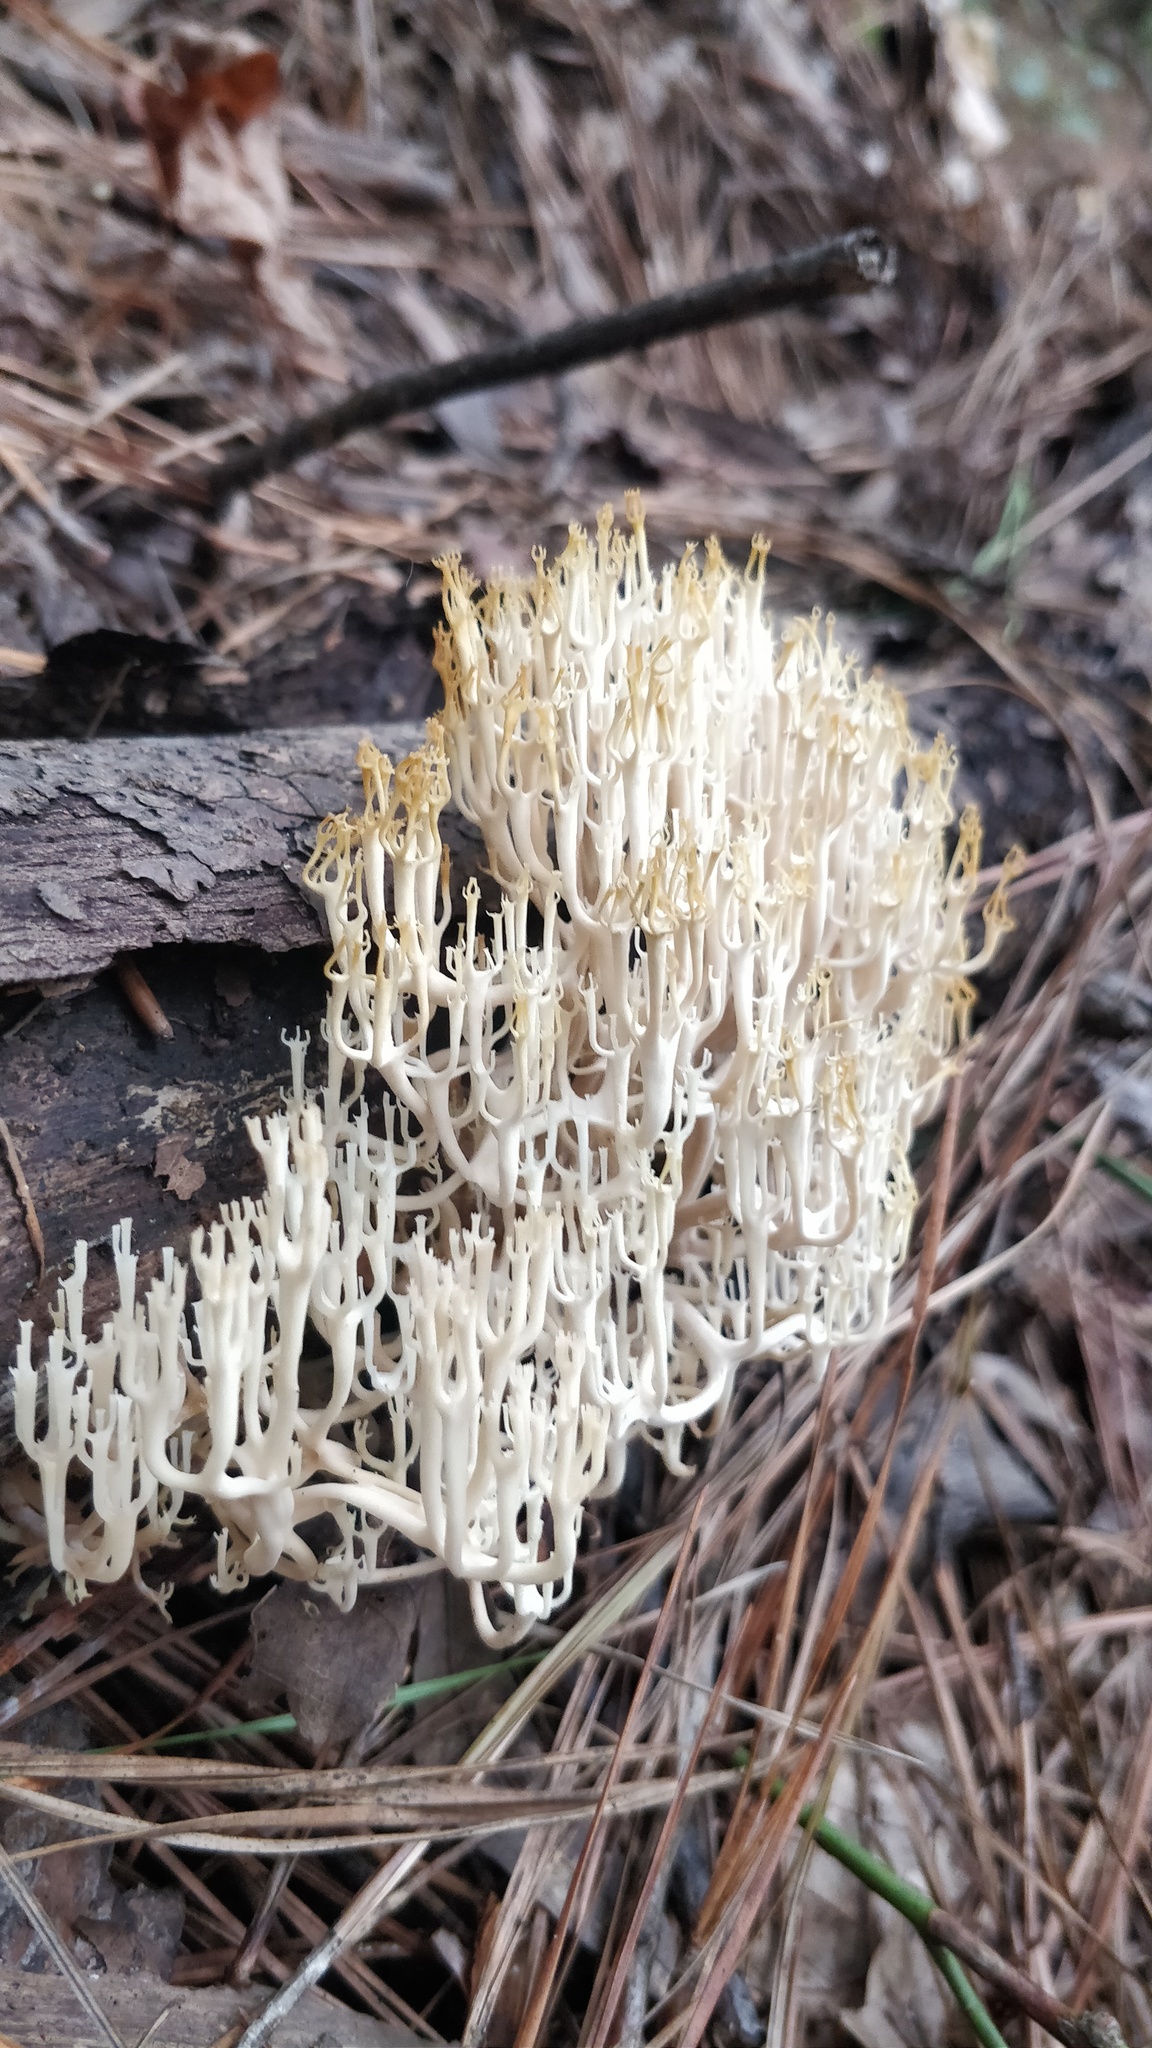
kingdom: Fungi
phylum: Basidiomycota
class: Agaricomycetes
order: Russulales
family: Auriscalpiaceae
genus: Artomyces
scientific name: Artomyces pyxidatus
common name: Crown-tipped coral fungus
